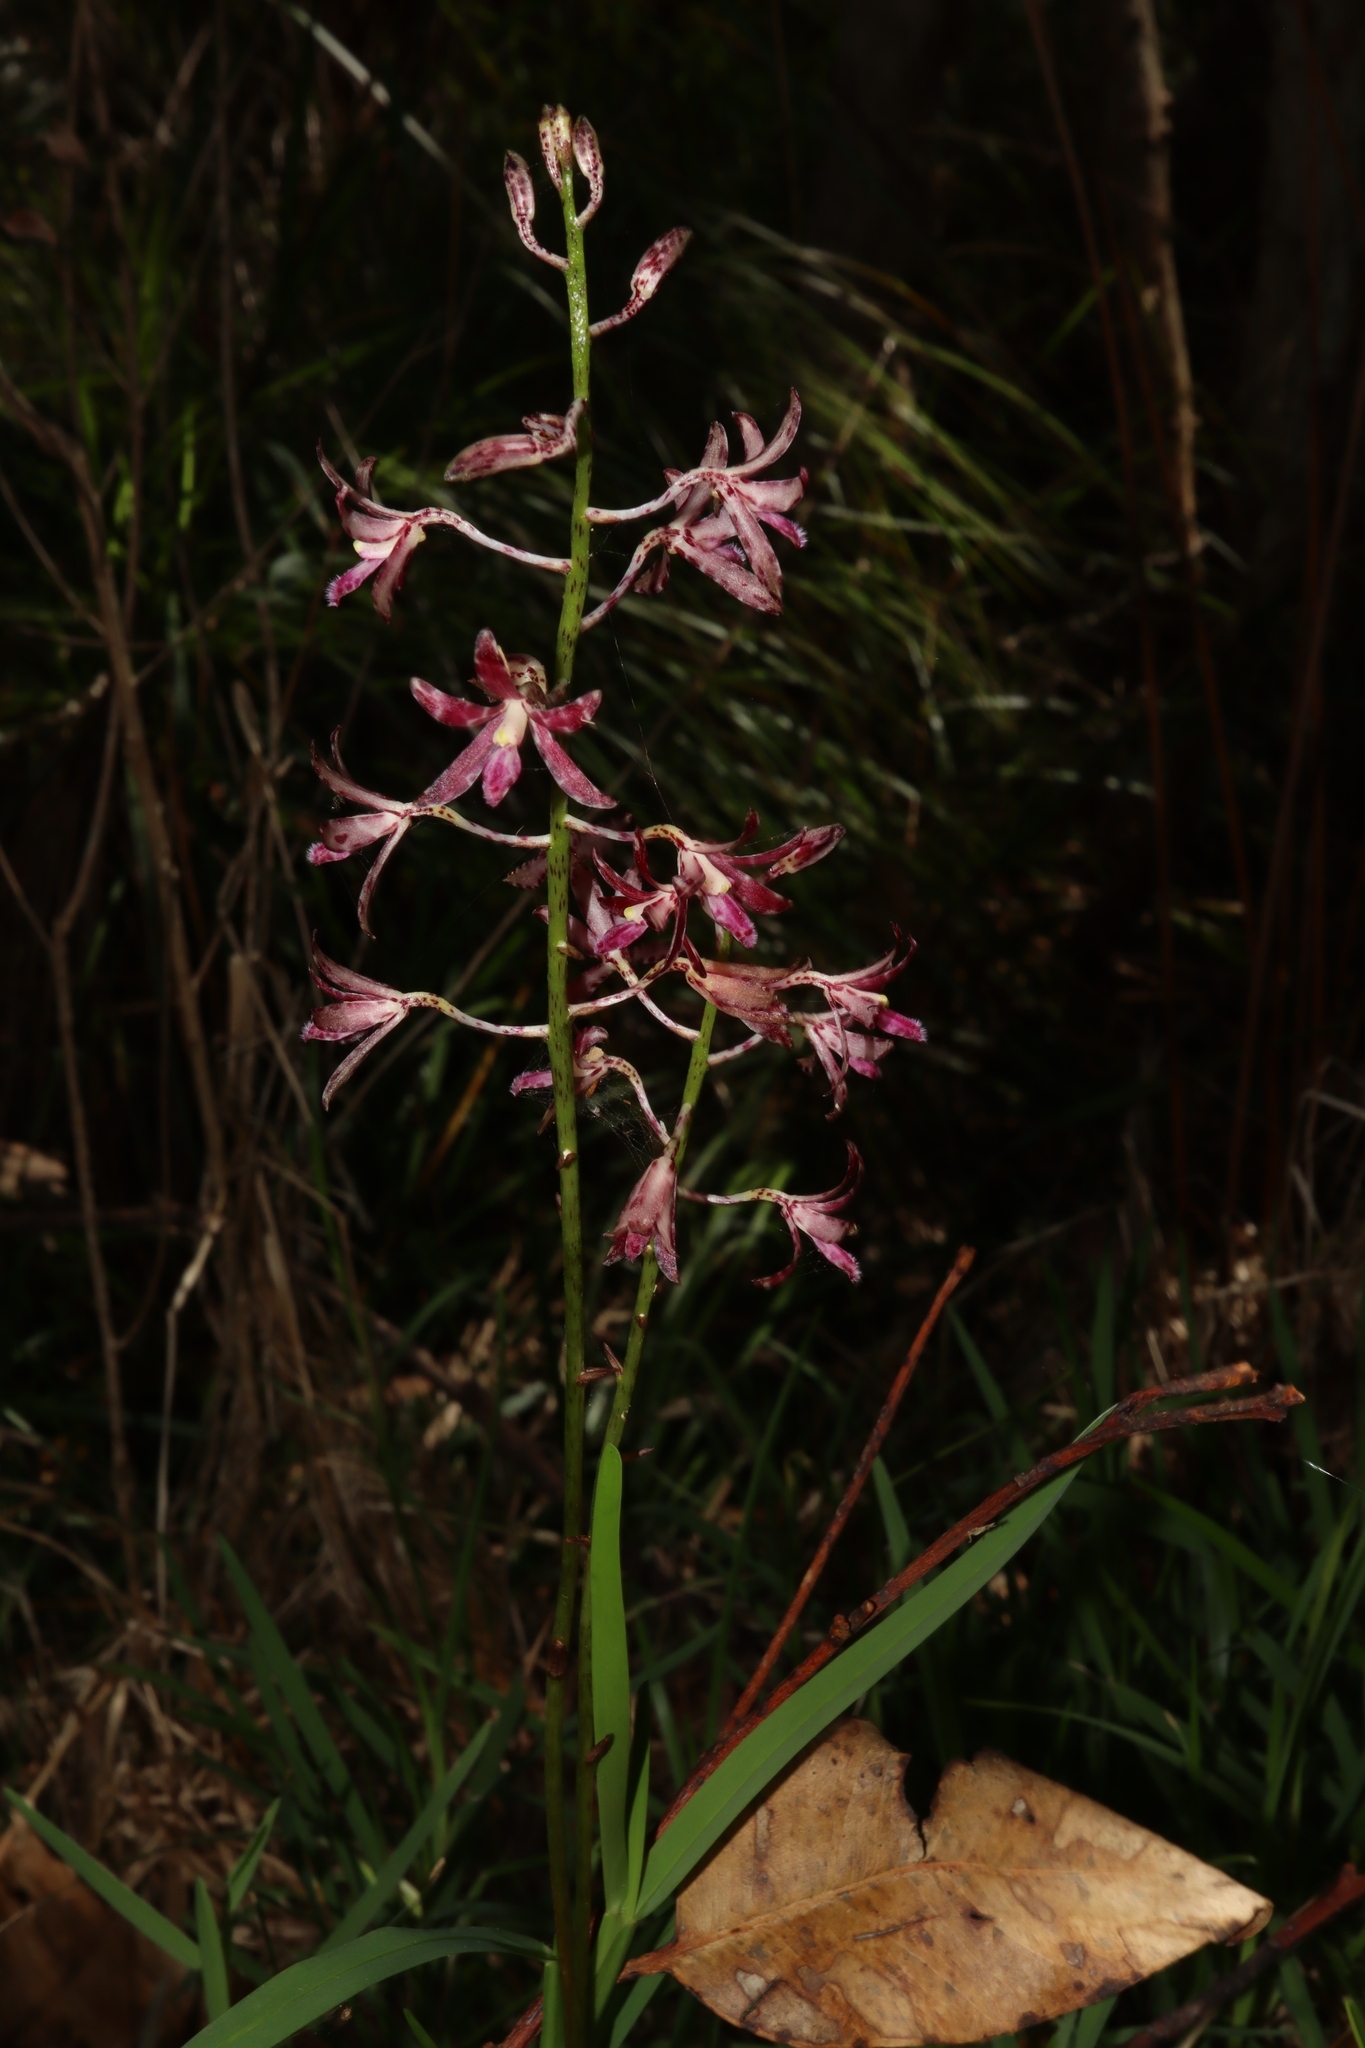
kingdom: Plantae
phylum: Tracheophyta
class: Liliopsida
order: Asparagales
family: Orchidaceae
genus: Dipodium
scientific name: Dipodium variegatum
